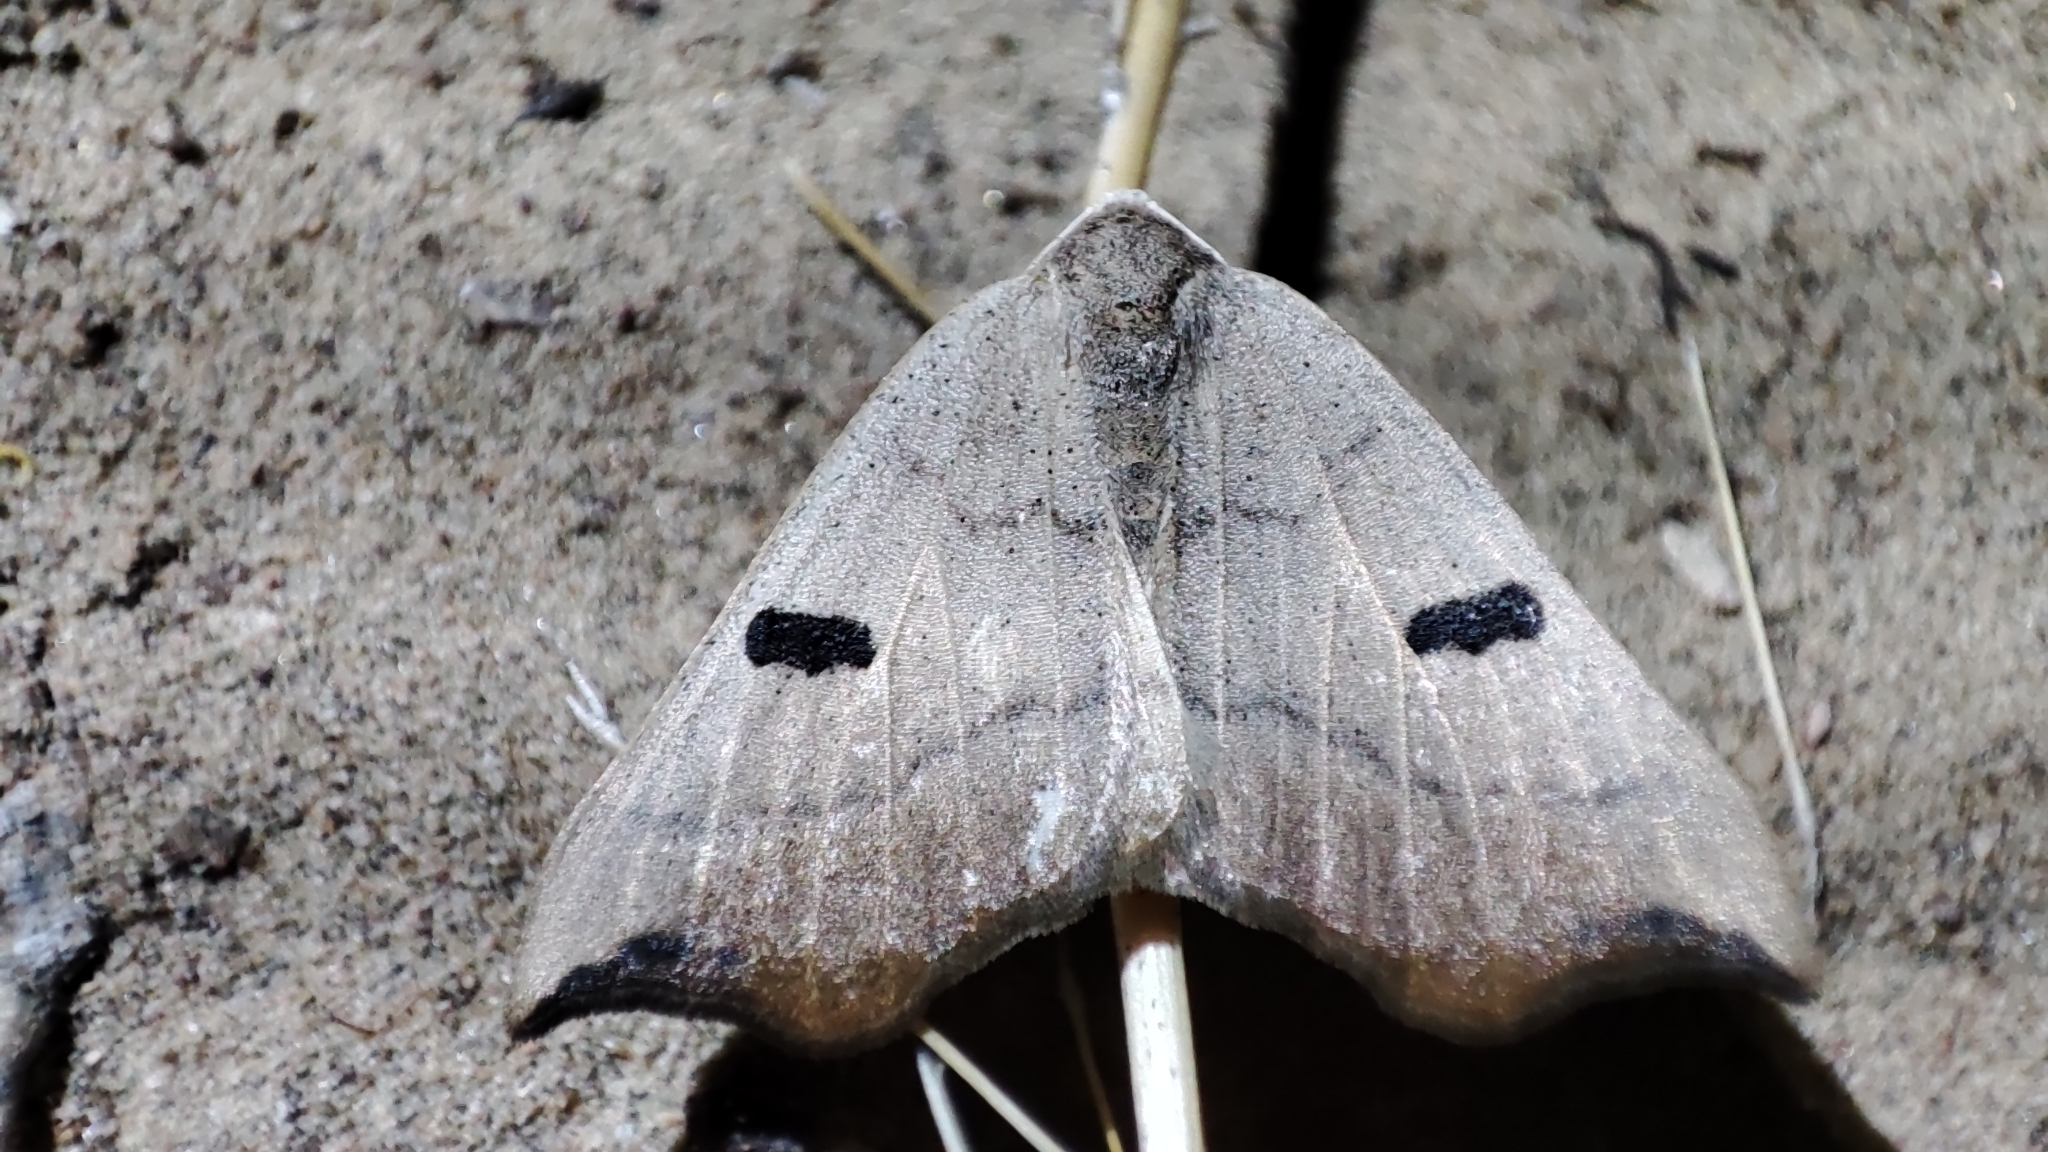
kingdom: Animalia
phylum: Arthropoda
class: Insecta
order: Lepidoptera
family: Geometridae
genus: Eilicrinia
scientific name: Eilicrinia subcordaria
